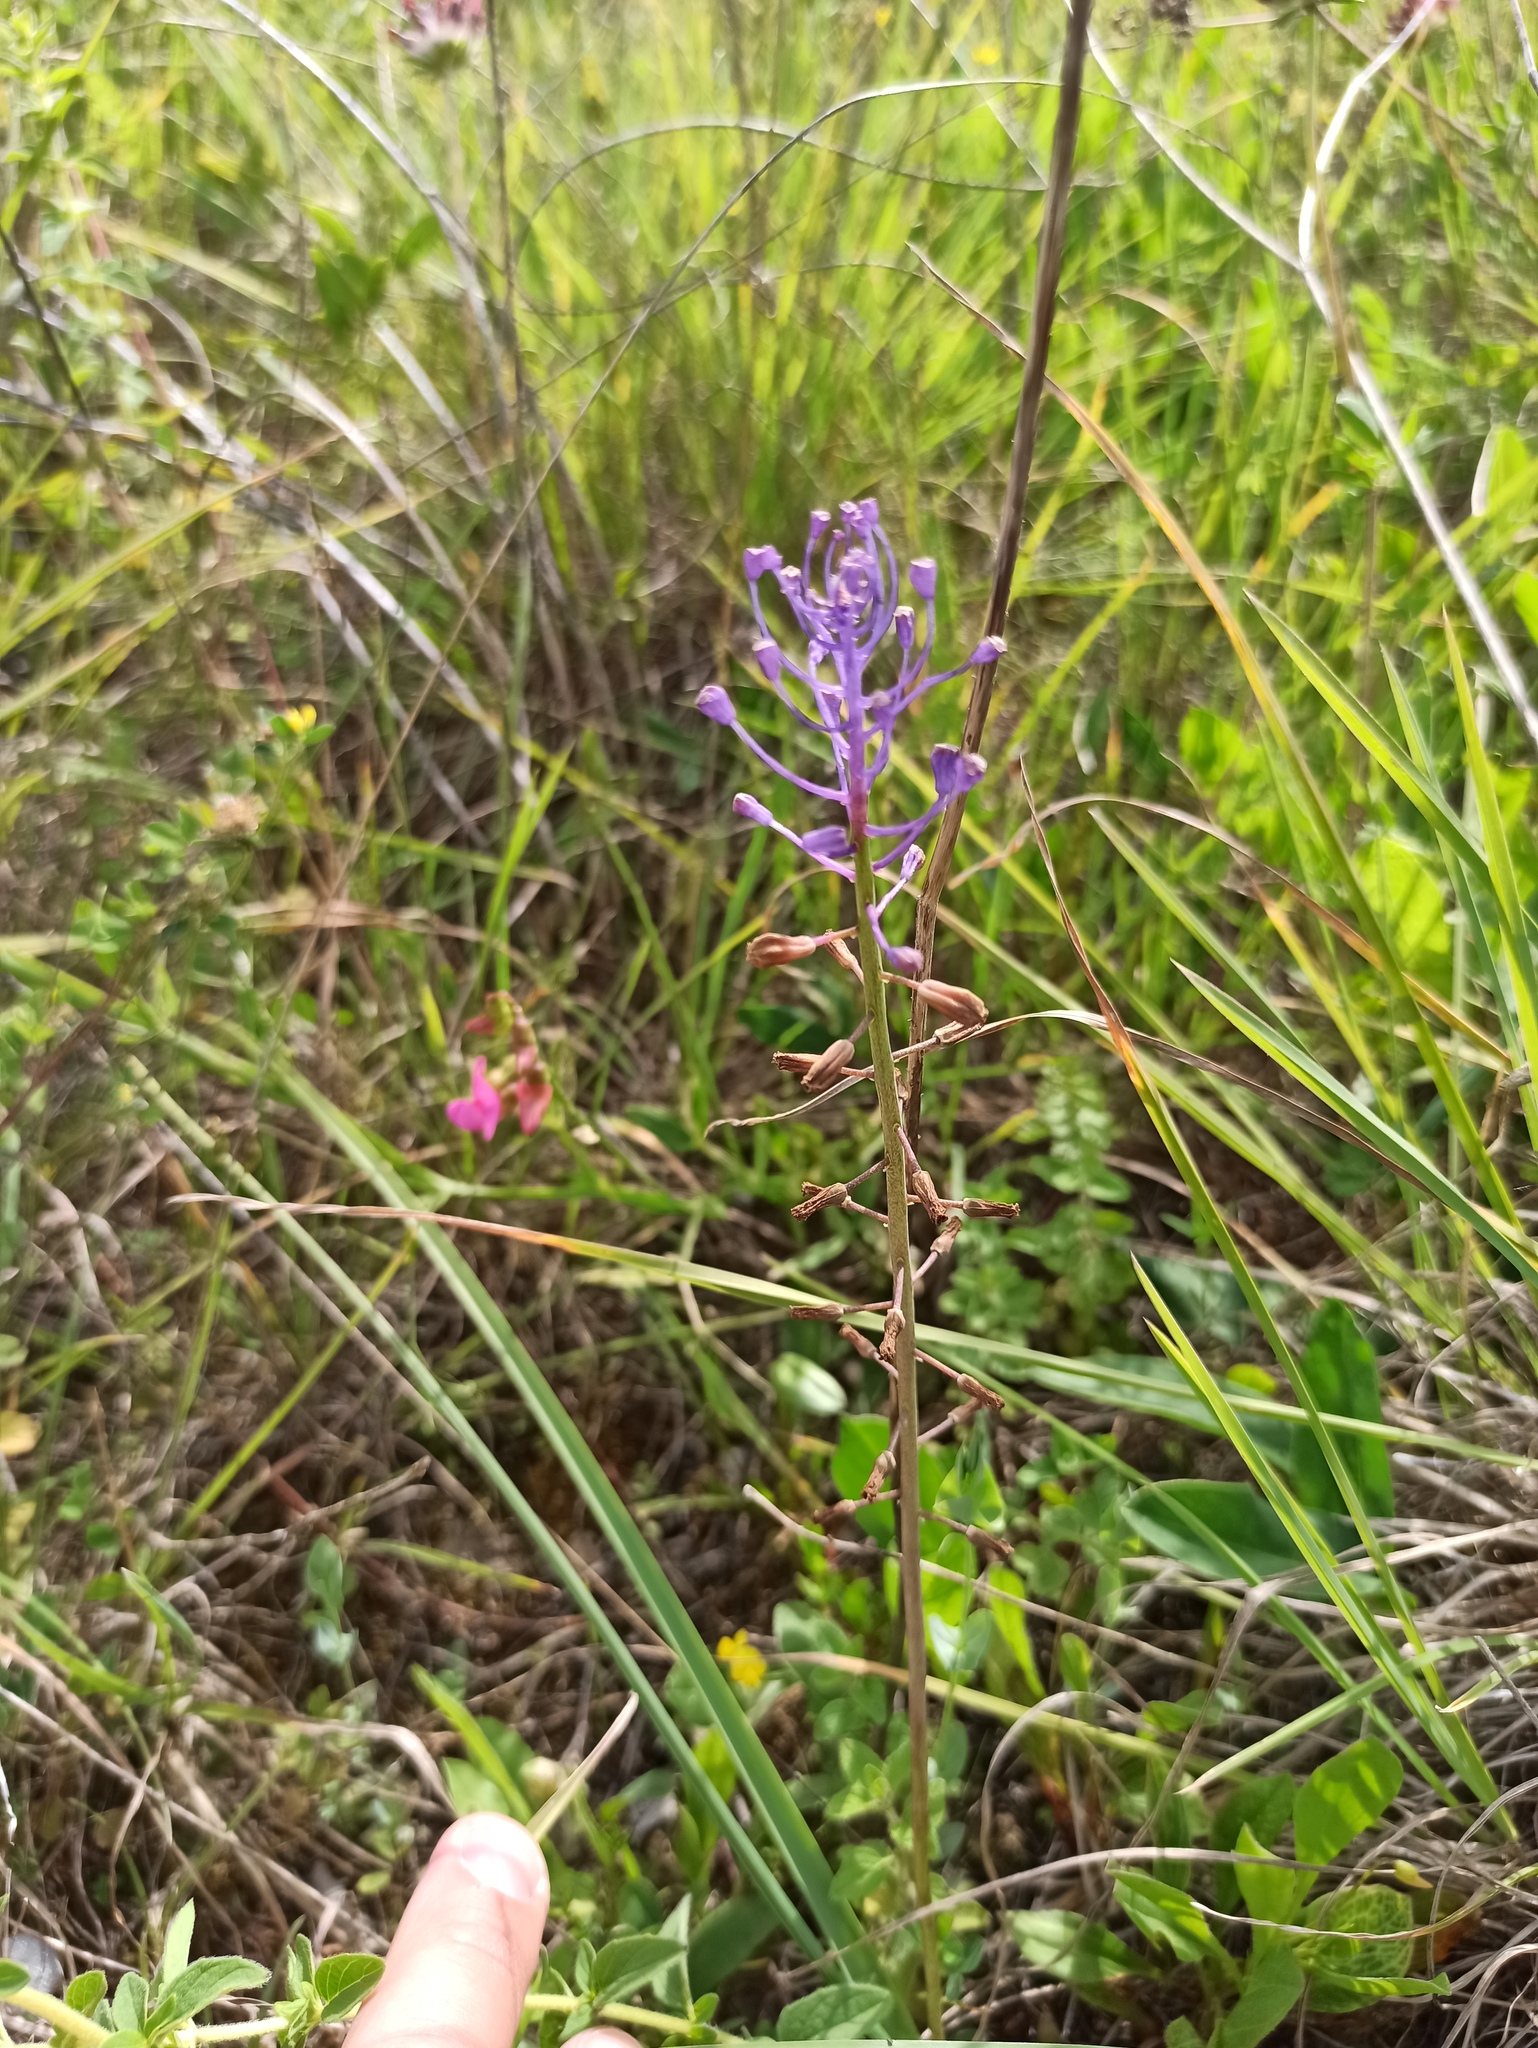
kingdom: Plantae
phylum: Tracheophyta
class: Liliopsida
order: Asparagales
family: Asparagaceae
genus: Muscari
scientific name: Muscari comosum
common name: Tassel hyacinth
